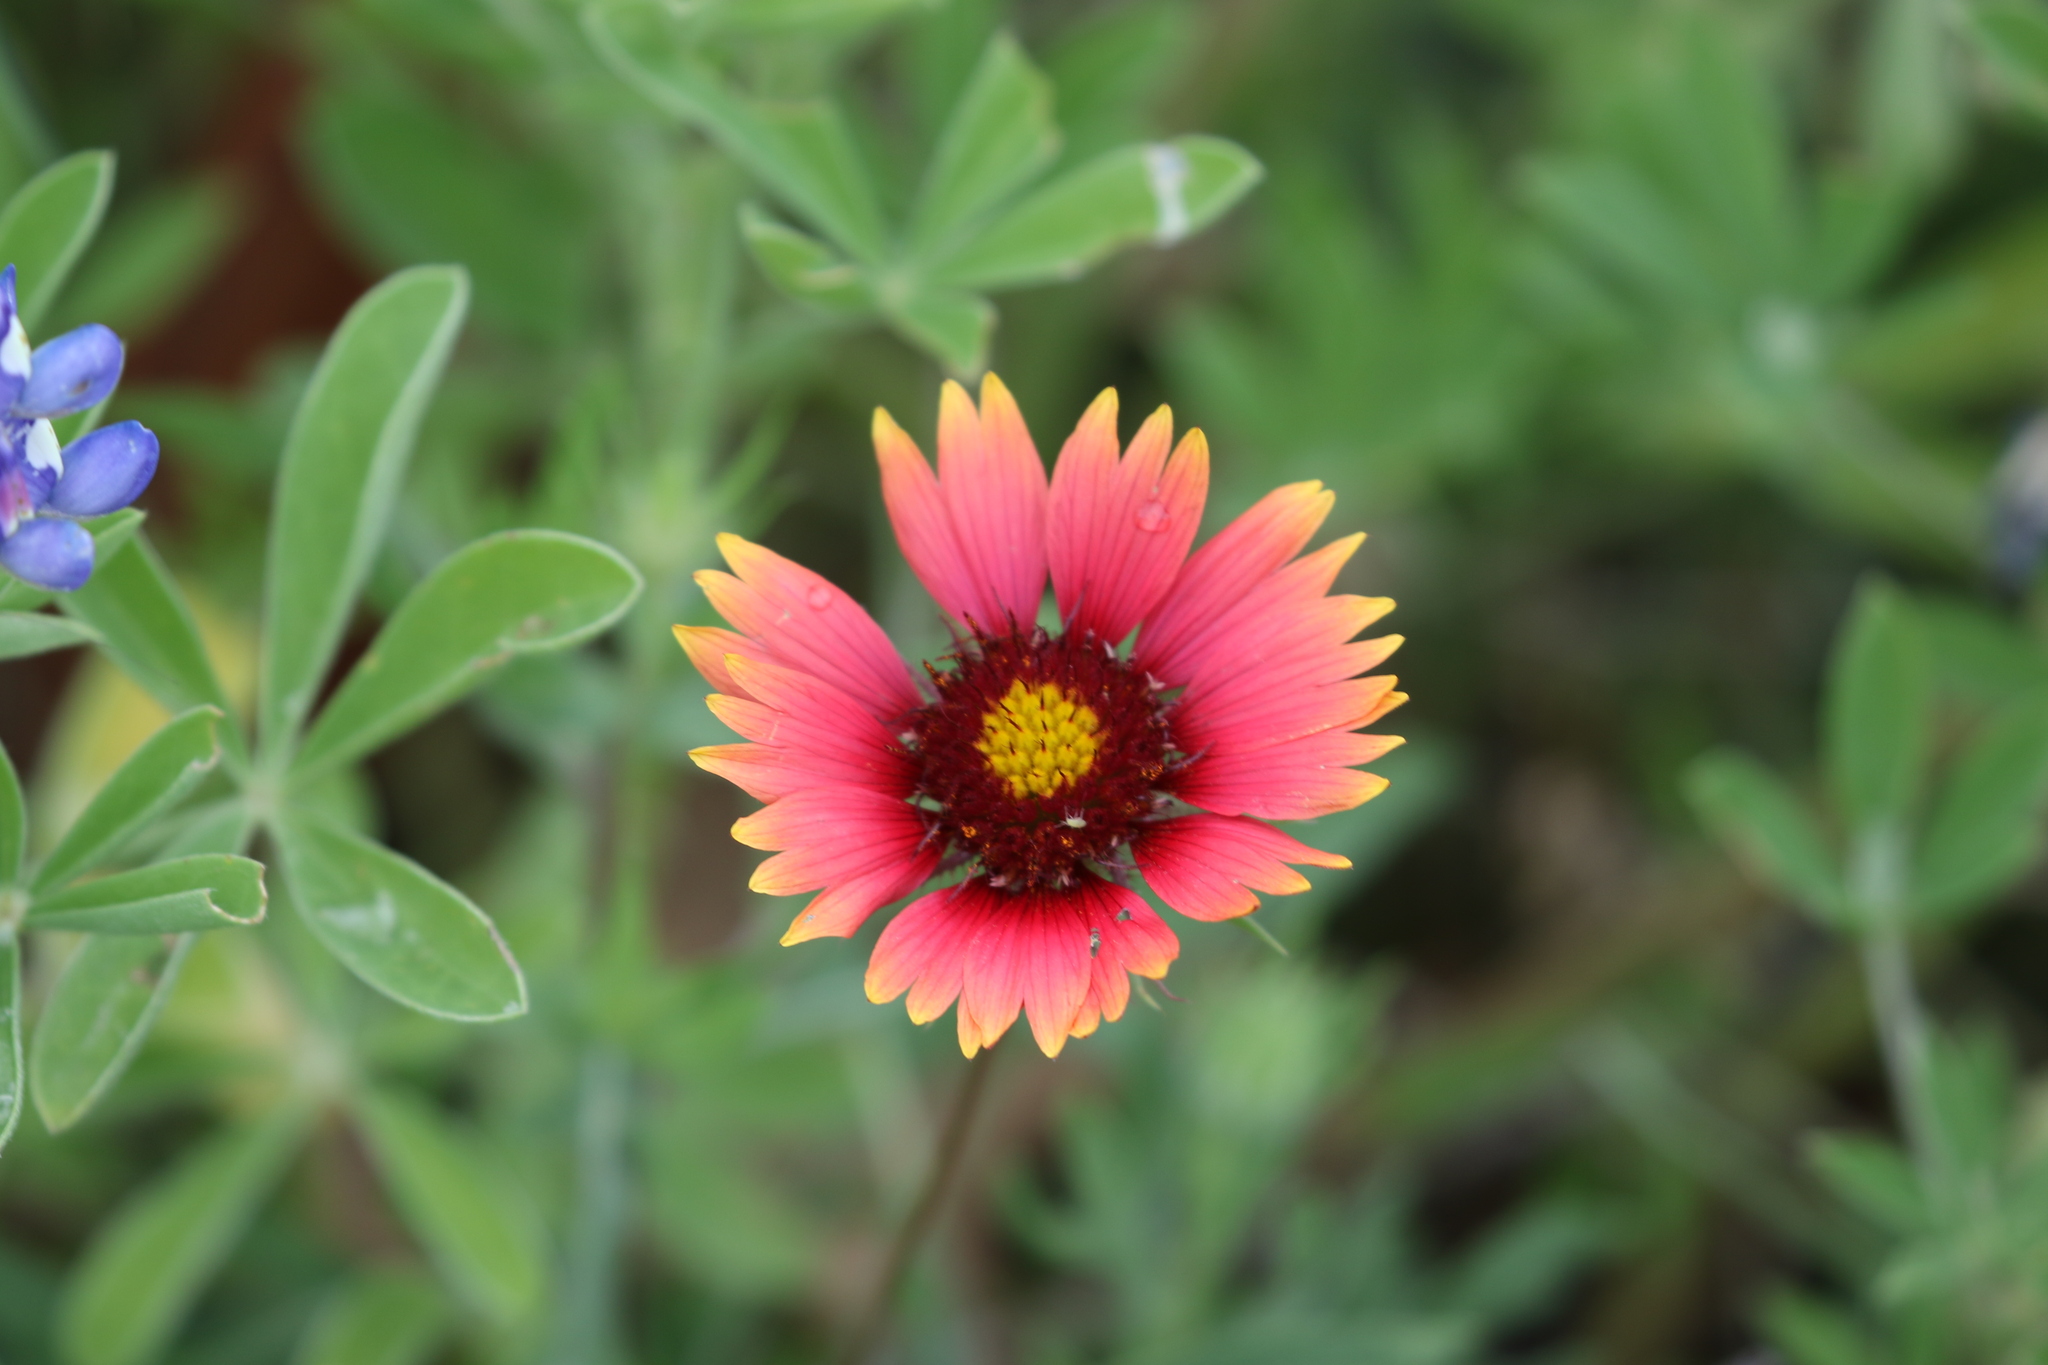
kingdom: Plantae
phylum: Tracheophyta
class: Magnoliopsida
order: Asterales
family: Asteraceae
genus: Gaillardia
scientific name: Gaillardia pulchella
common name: Firewheel
